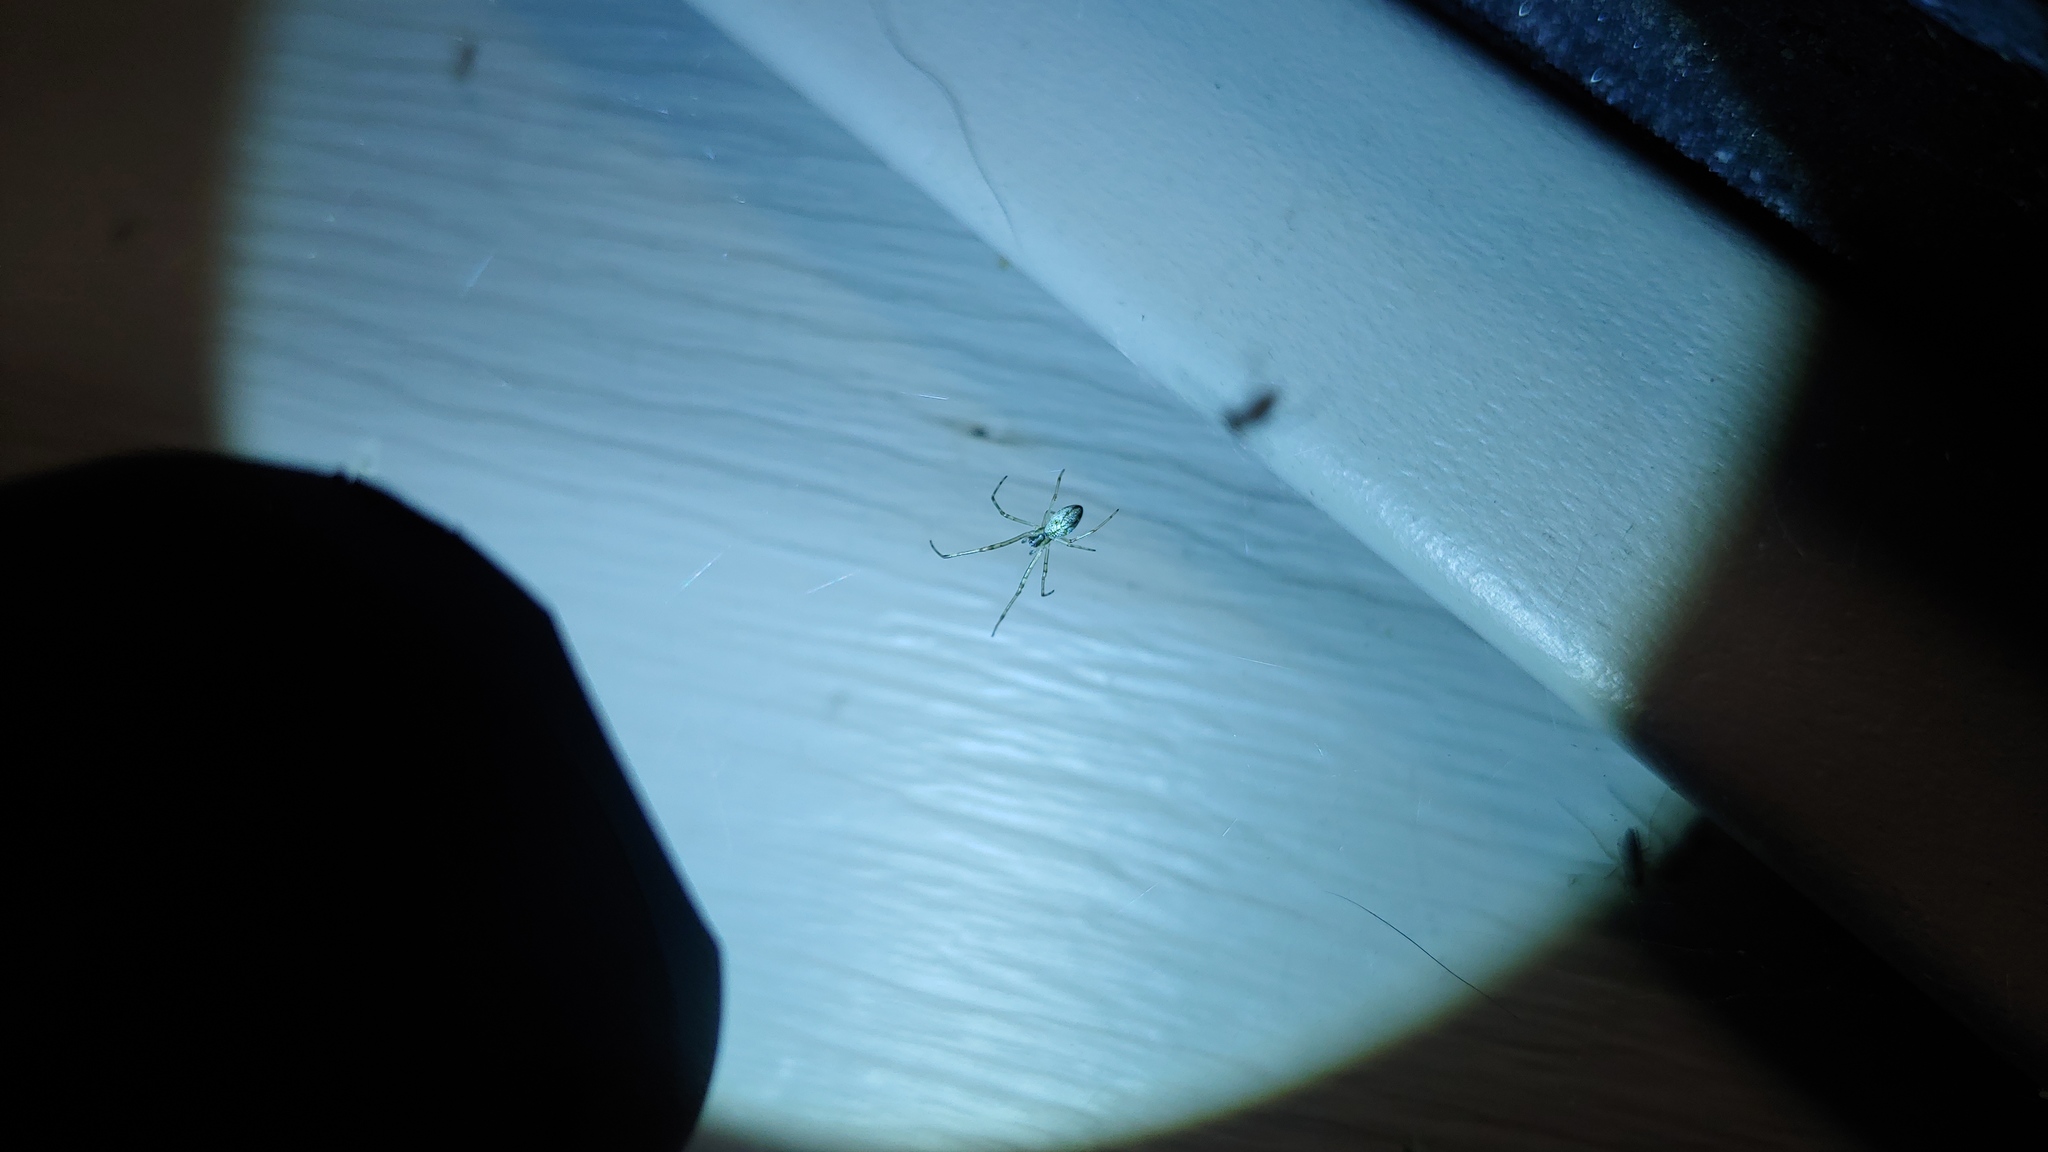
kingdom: Animalia
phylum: Arthropoda
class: Arachnida
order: Araneae
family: Tetragnathidae
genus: Leucauge
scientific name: Leucauge venusta
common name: Longjawed orb weavers
